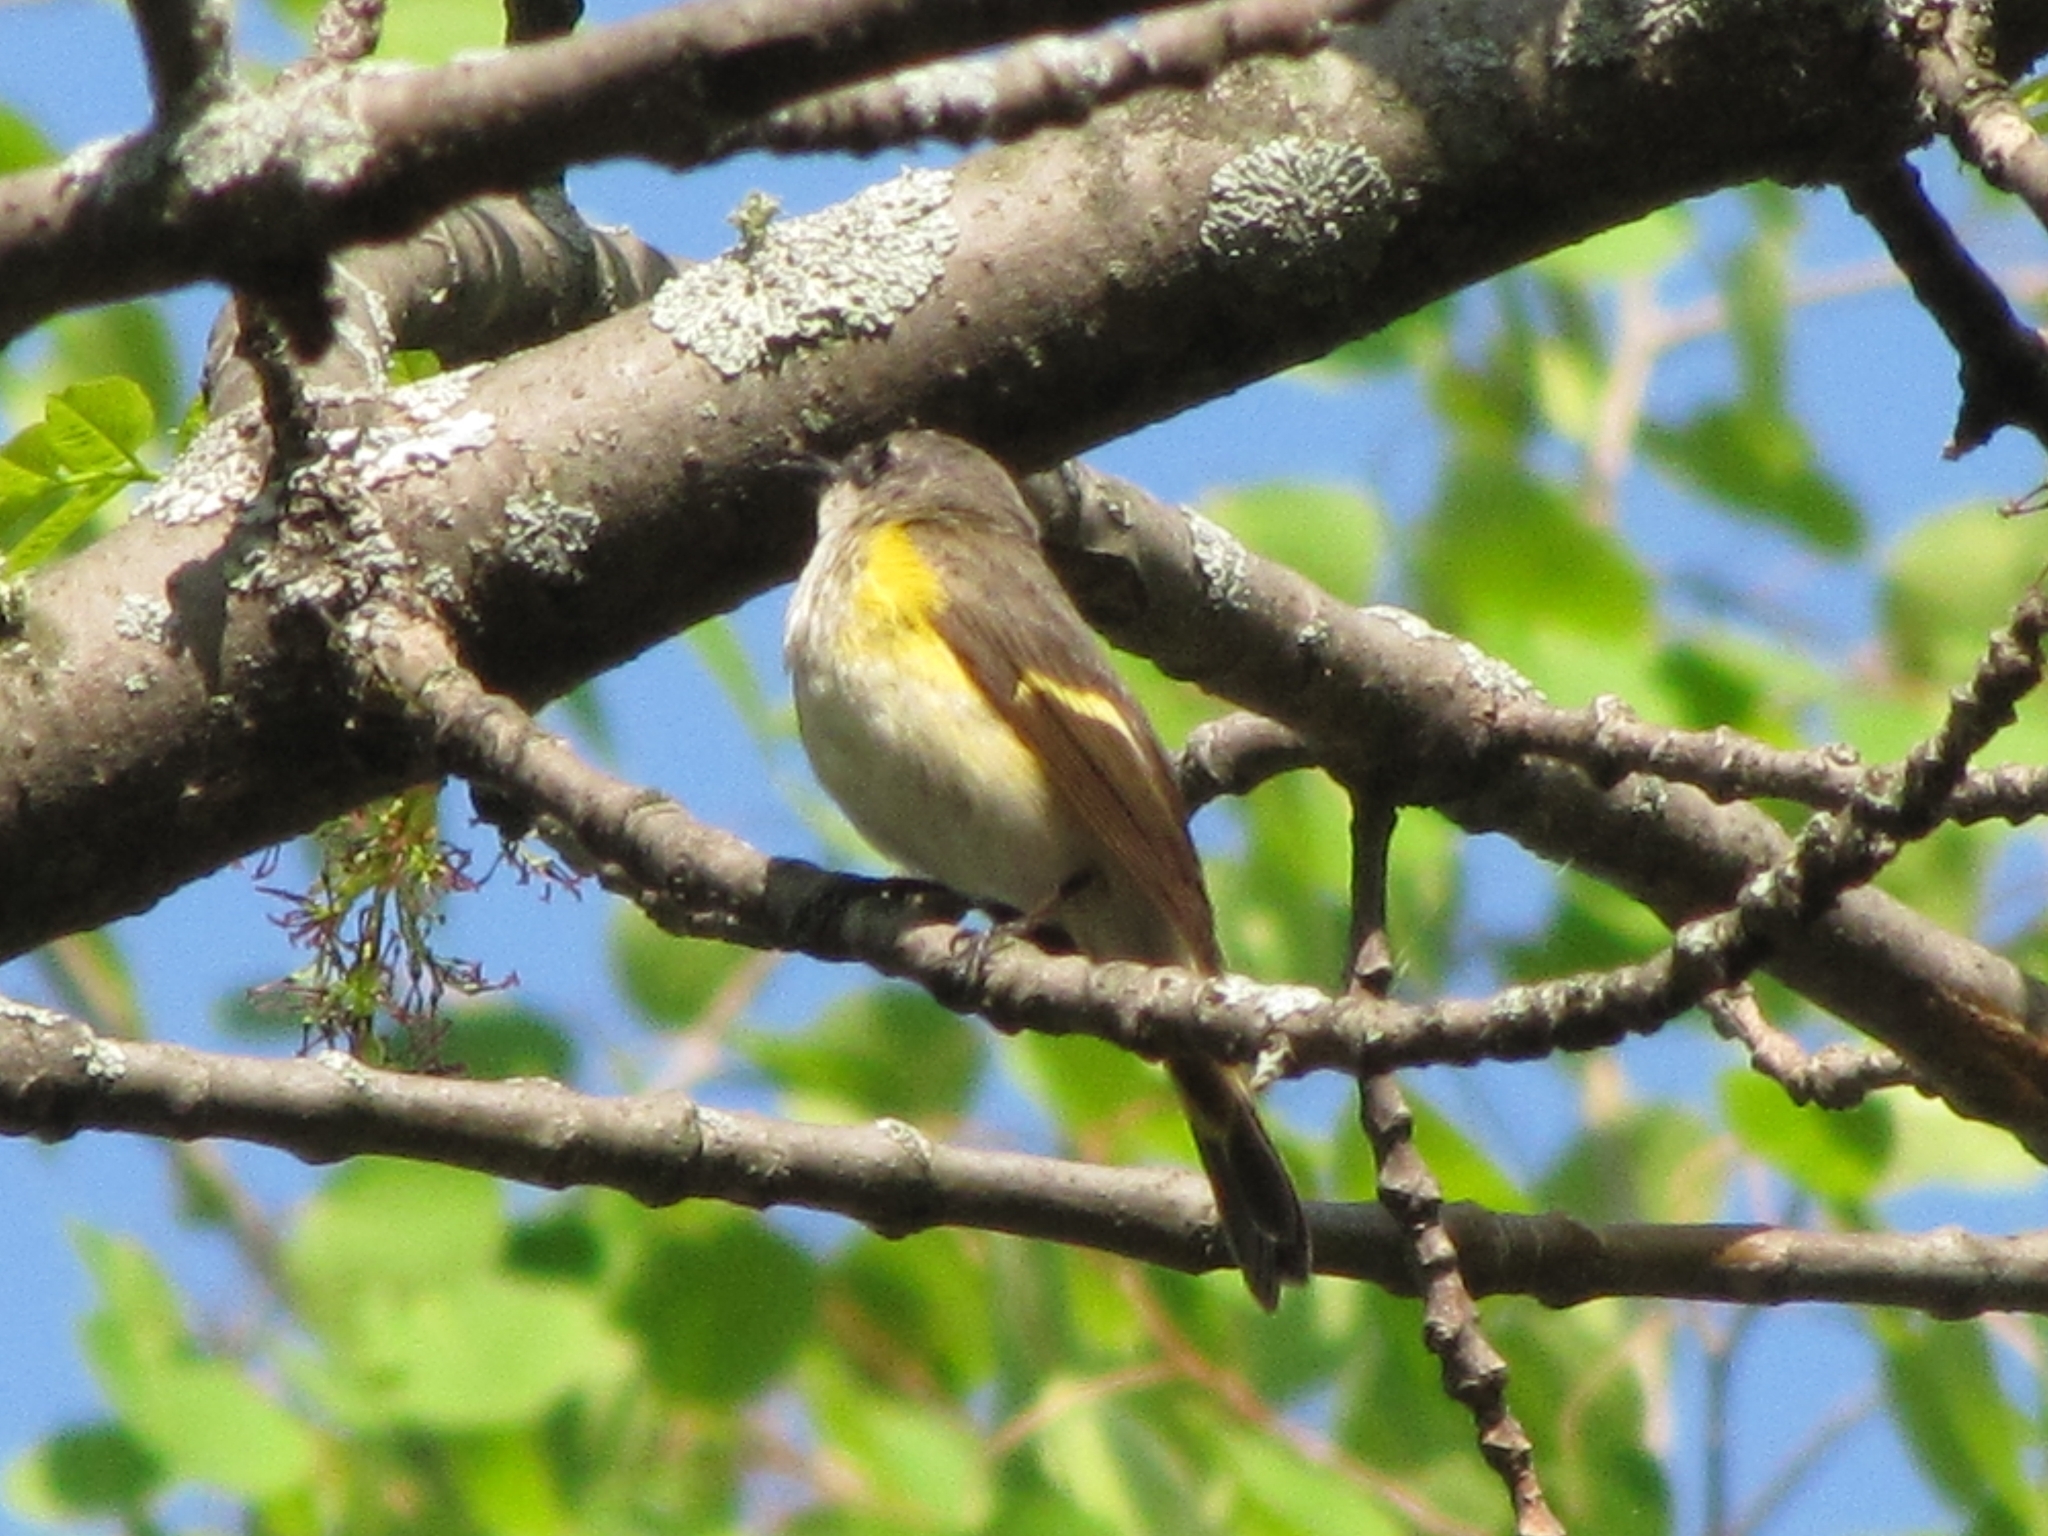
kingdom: Animalia
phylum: Chordata
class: Aves
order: Passeriformes
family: Parulidae
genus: Setophaga
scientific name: Setophaga ruticilla
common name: American redstart
